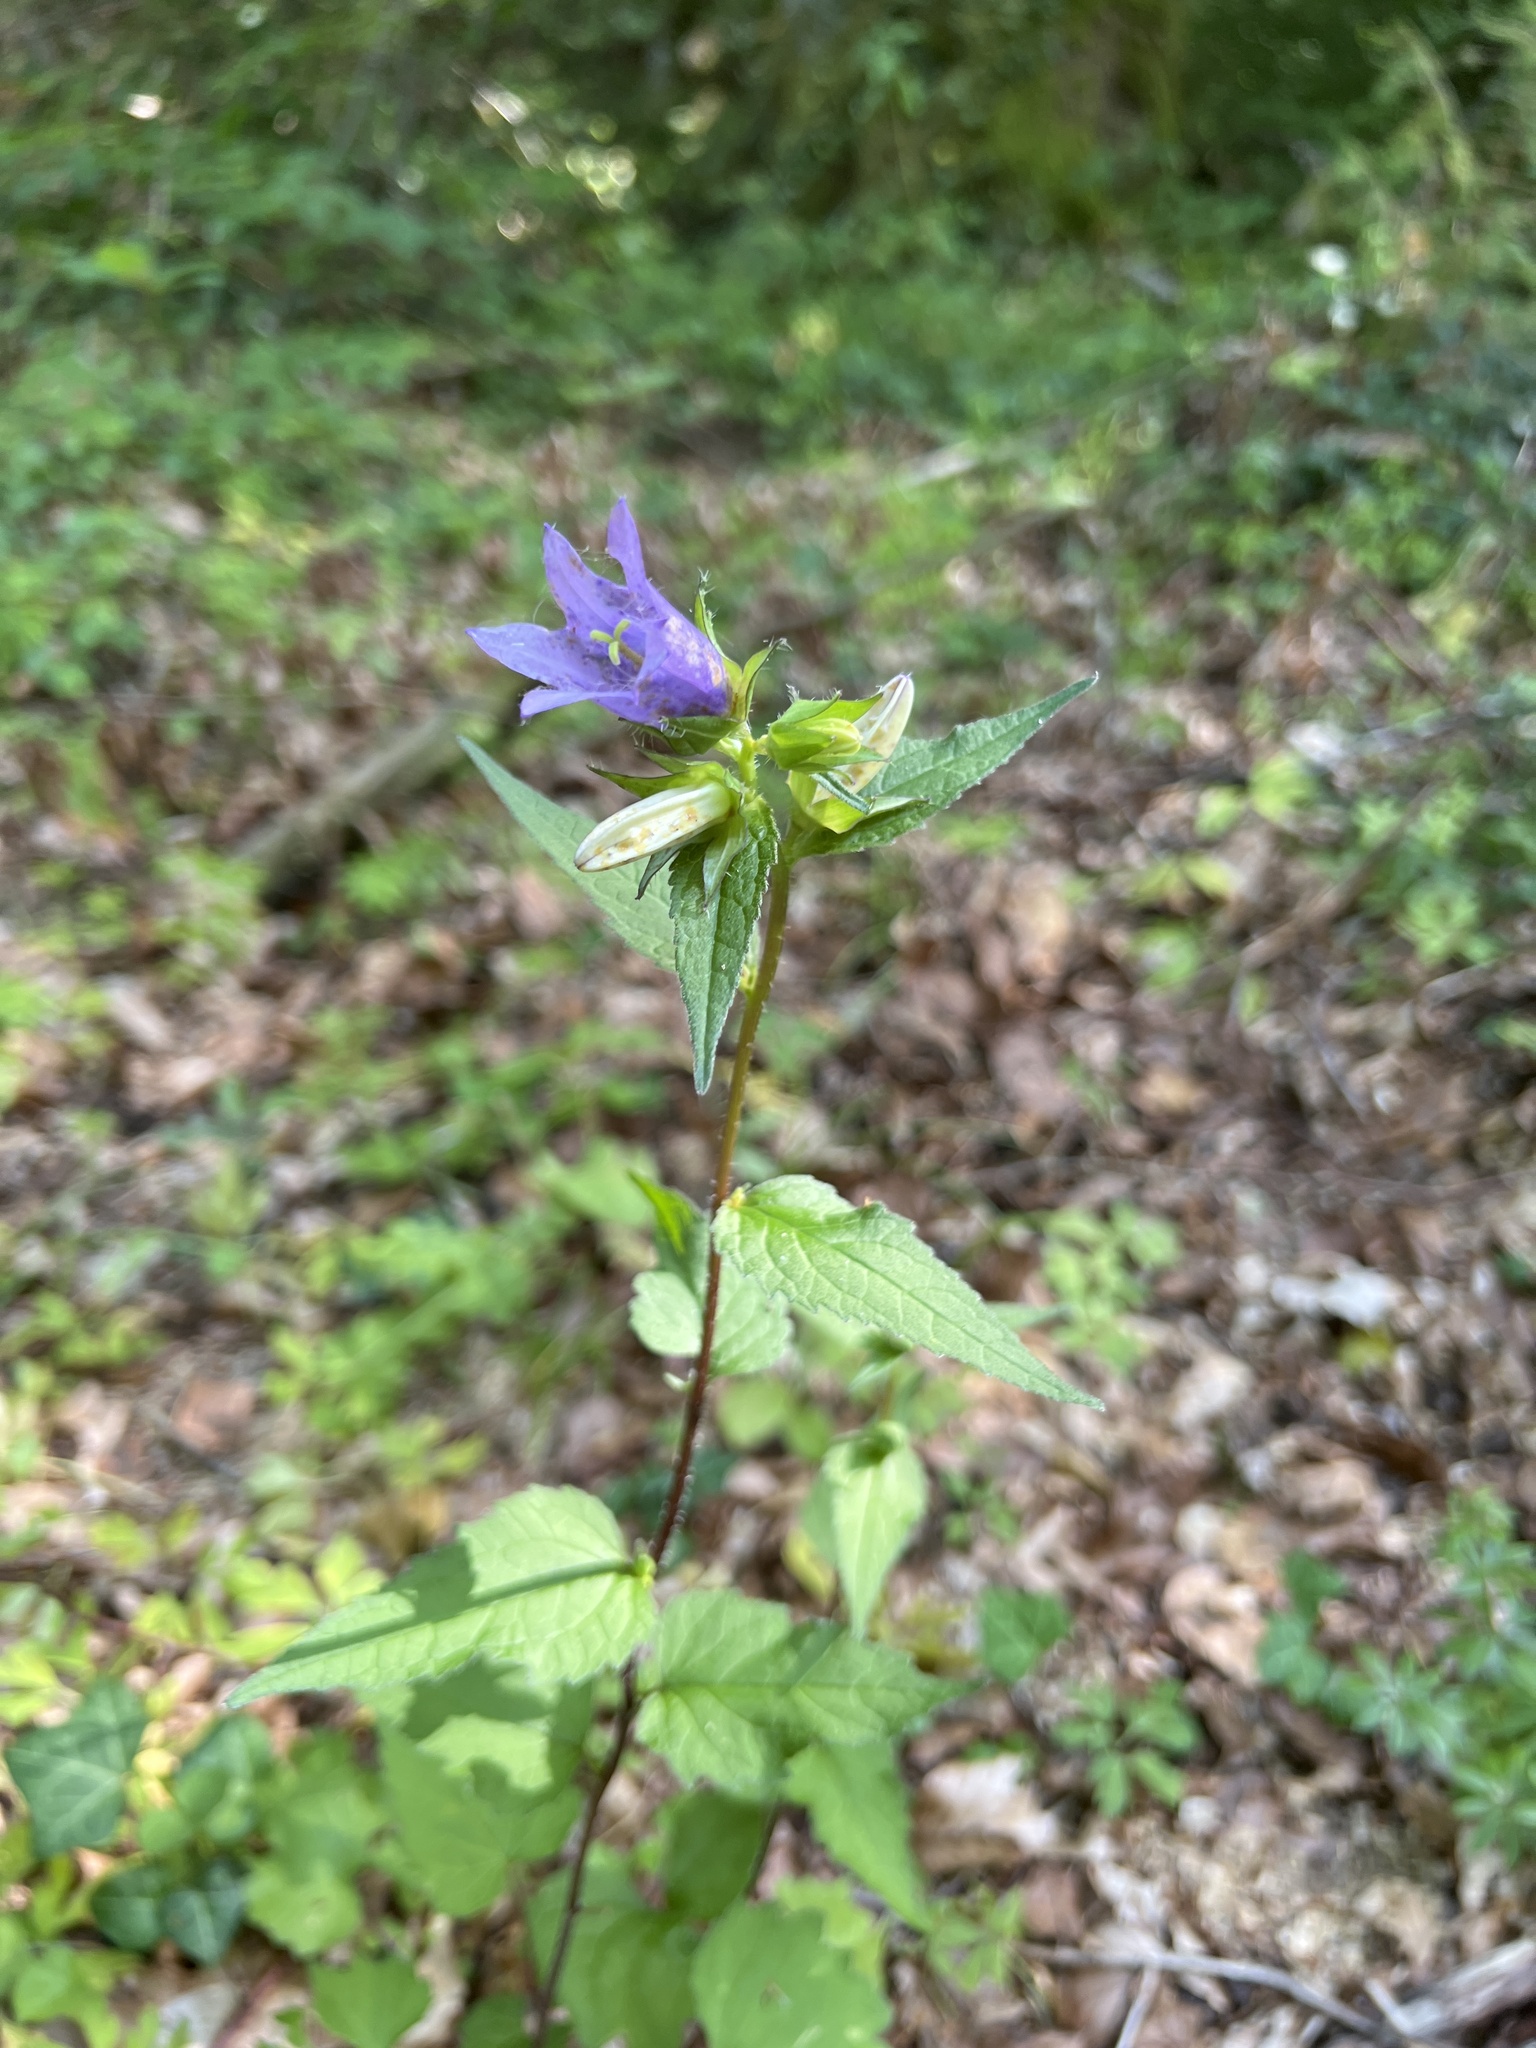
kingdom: Plantae
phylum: Tracheophyta
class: Magnoliopsida
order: Asterales
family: Campanulaceae
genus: Campanula
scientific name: Campanula trachelium
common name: Nettle-leaved bellflower
